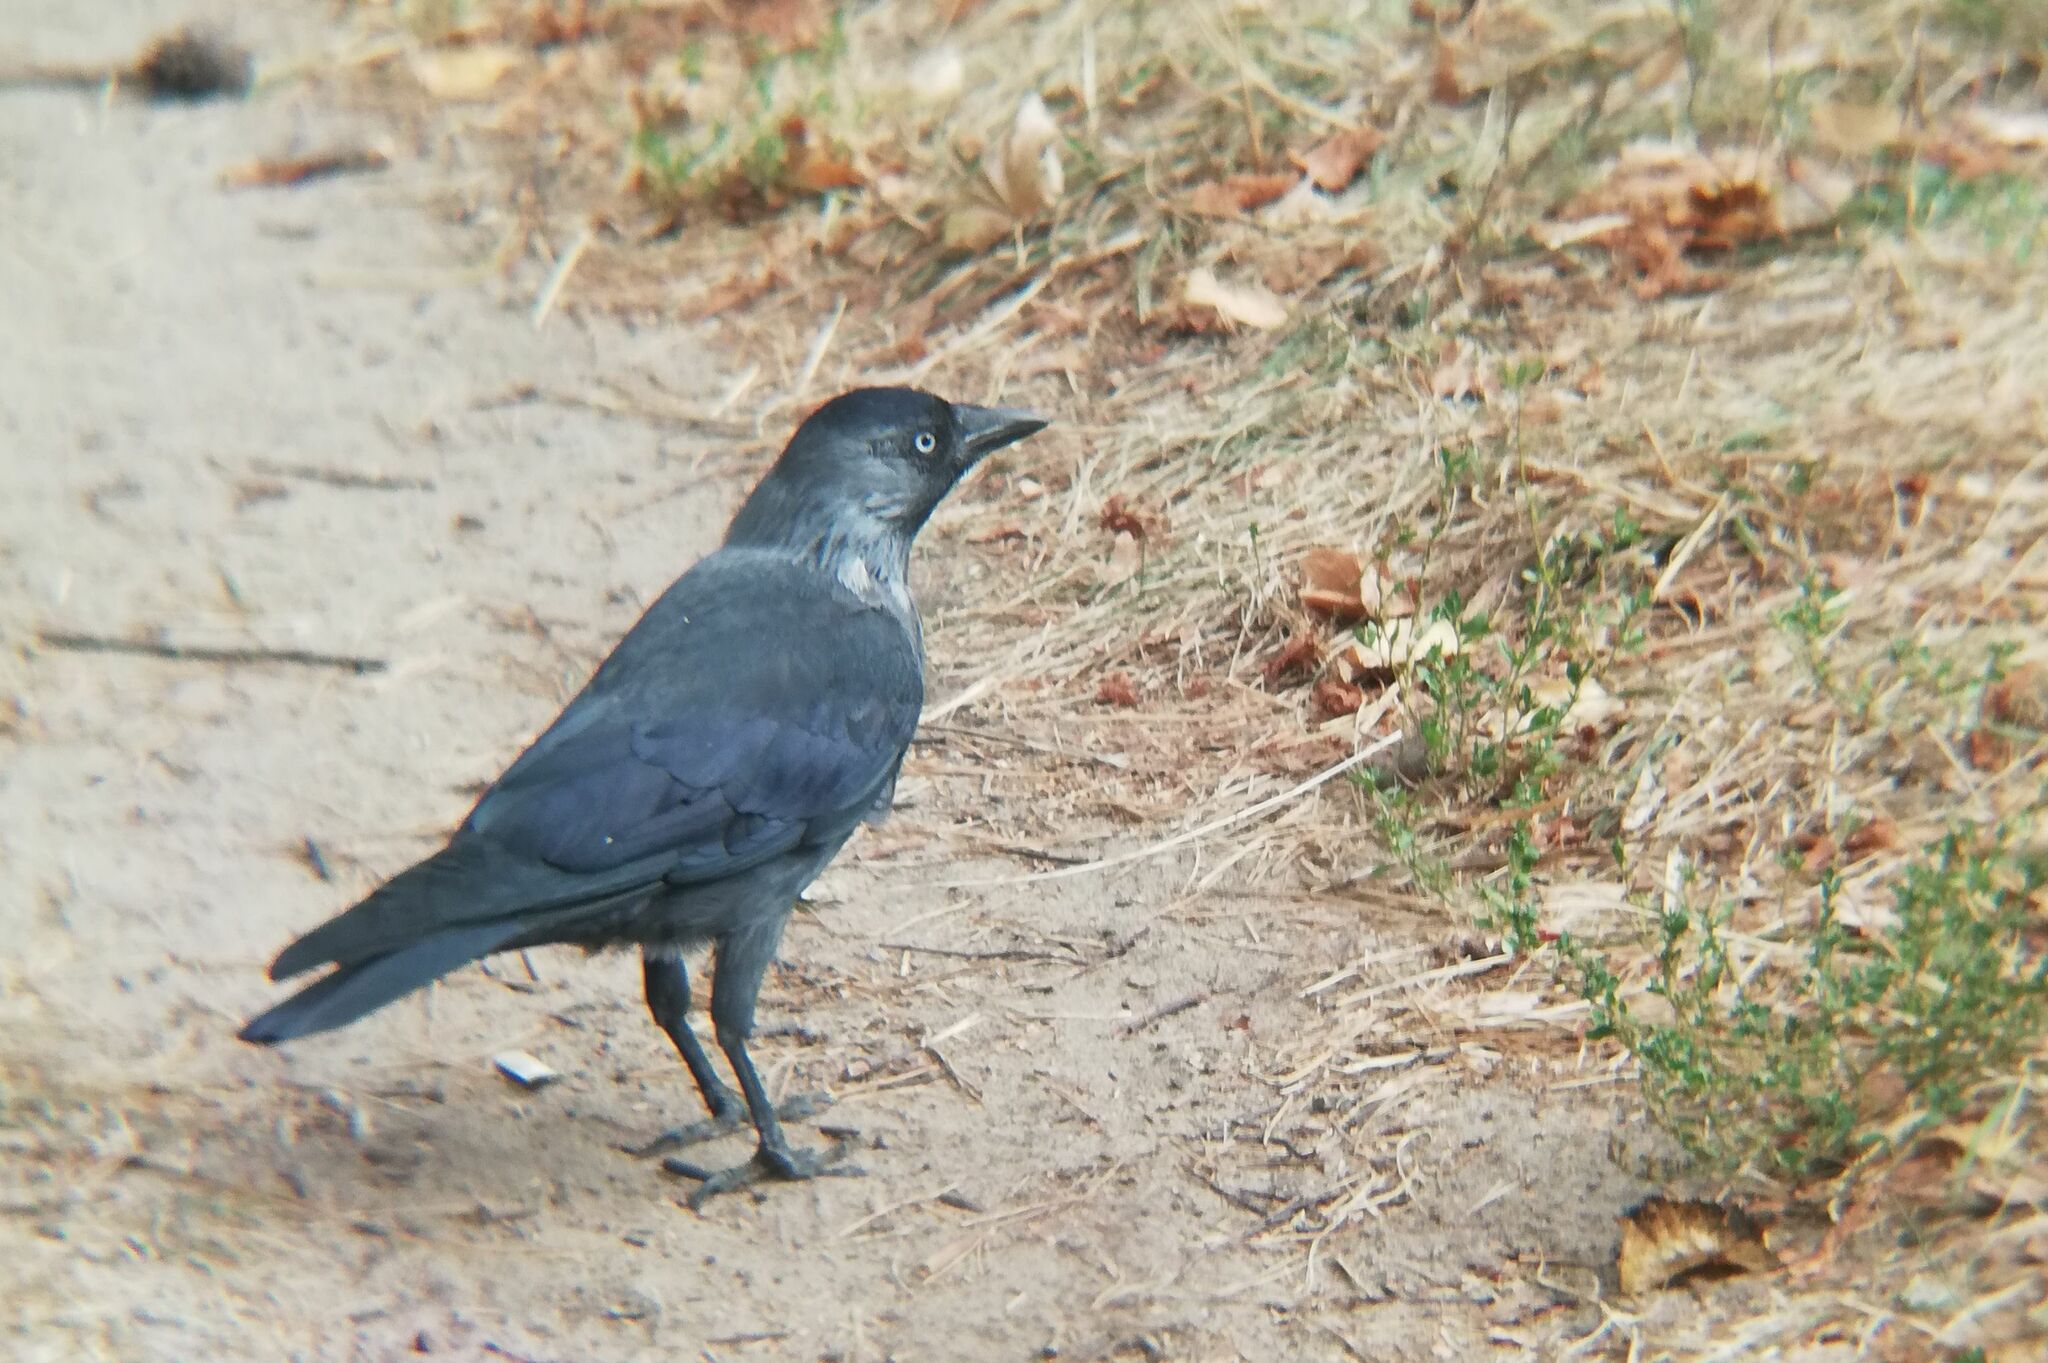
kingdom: Animalia
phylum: Chordata
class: Aves
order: Passeriformes
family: Corvidae
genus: Coloeus
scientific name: Coloeus monedula
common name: Western jackdaw
